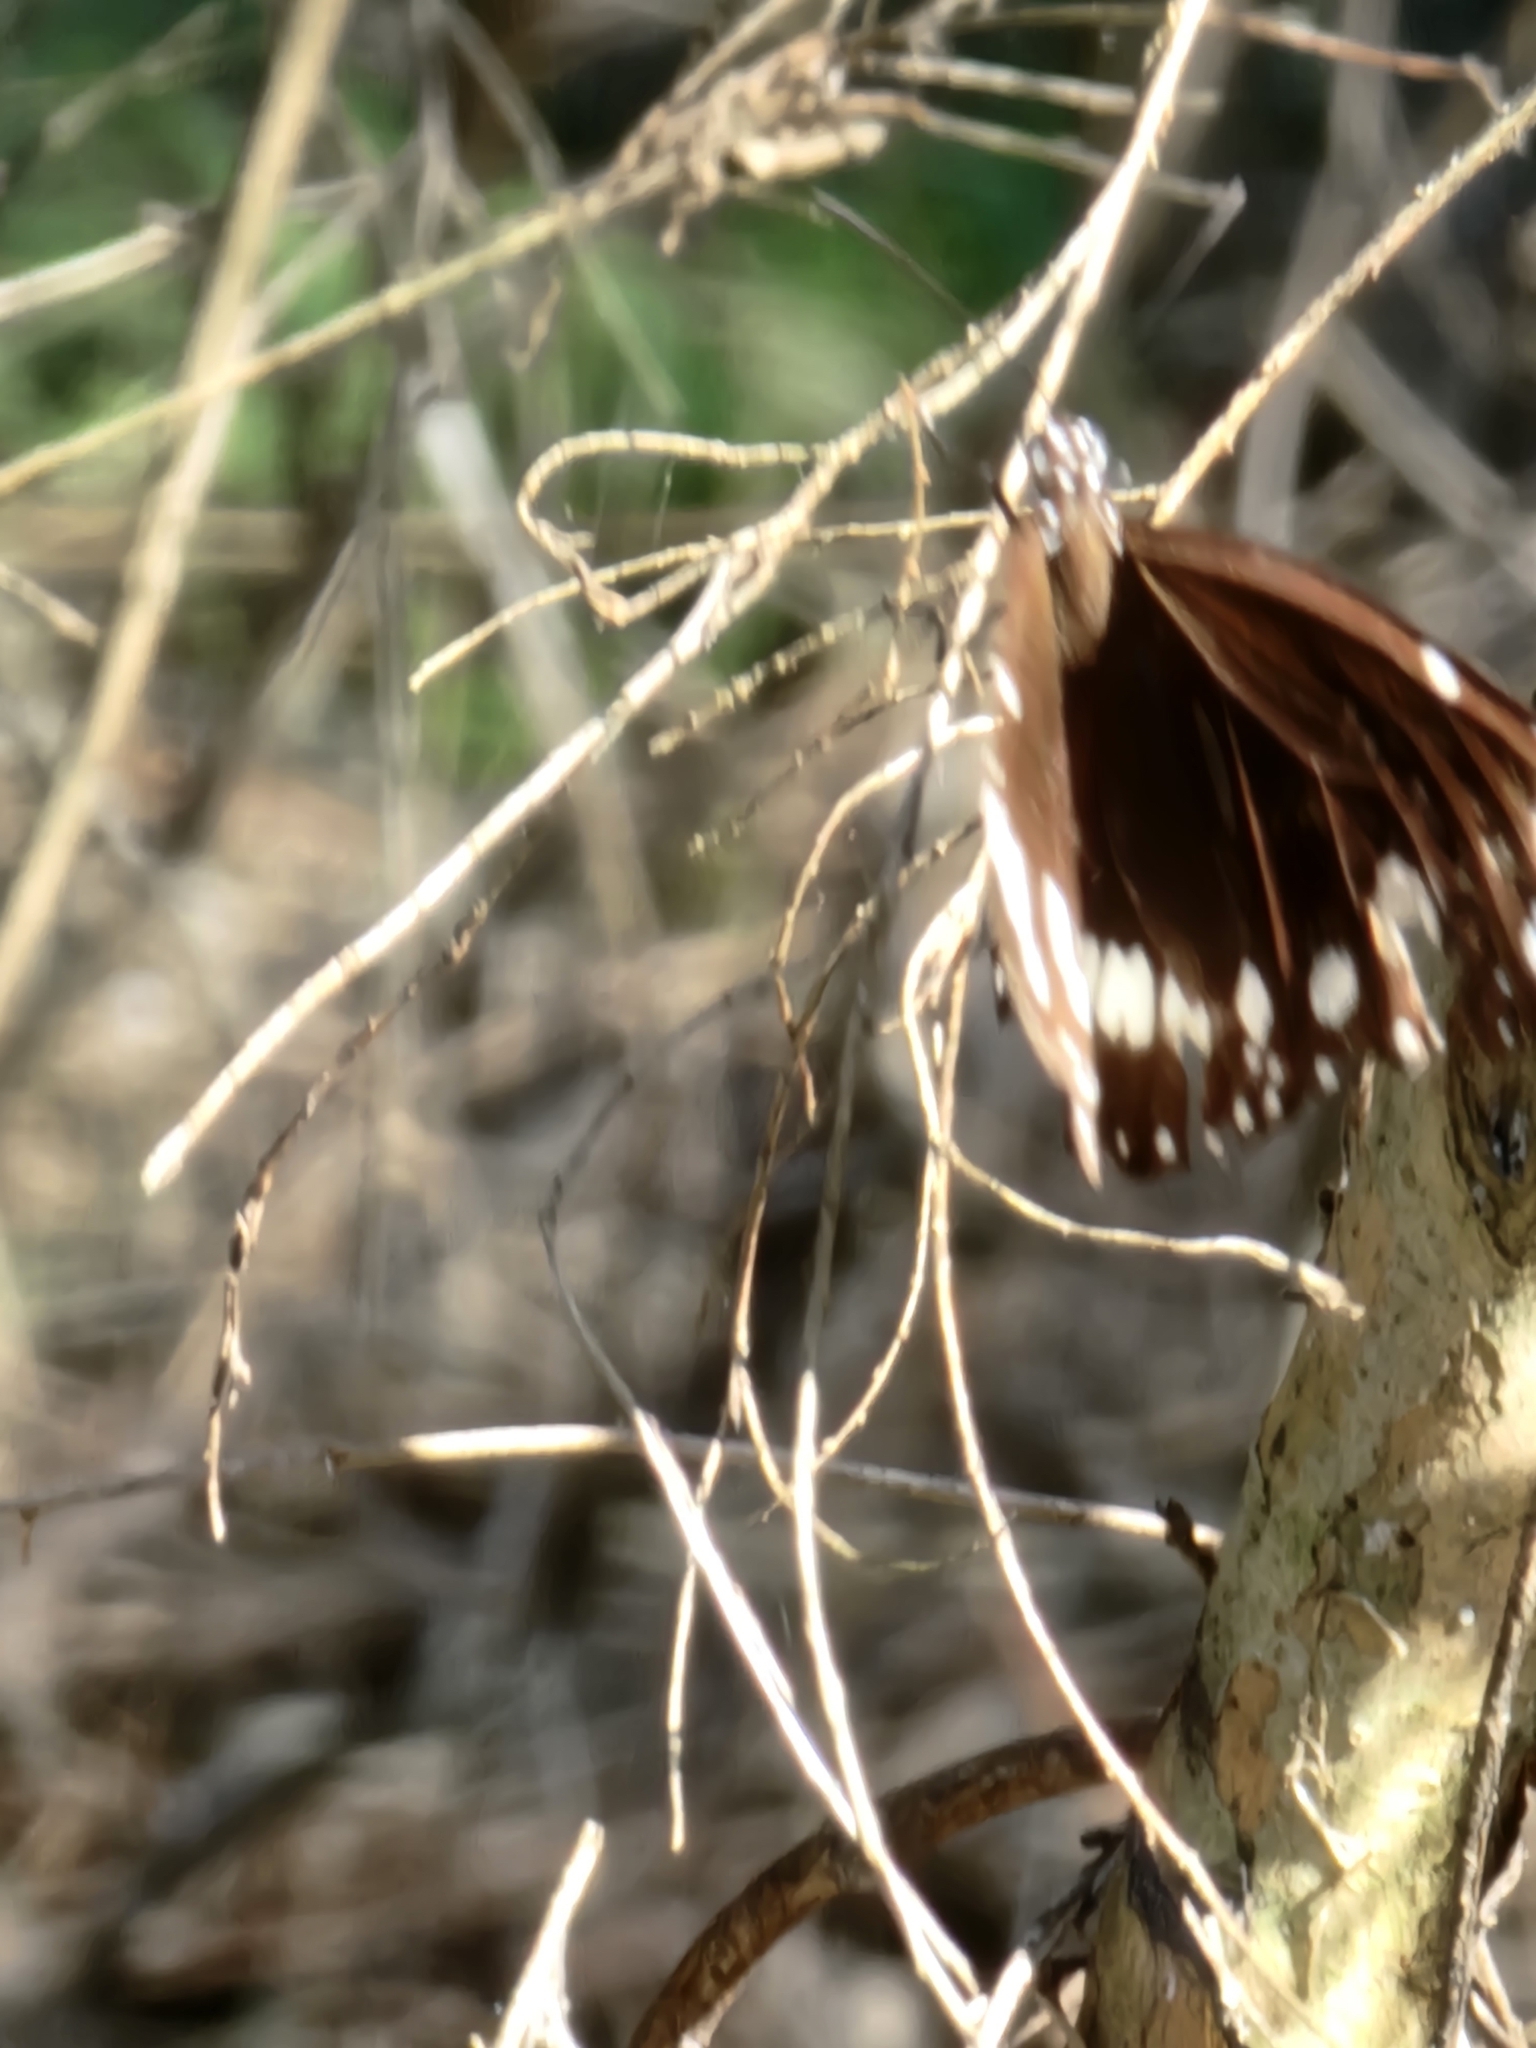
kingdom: Animalia
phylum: Arthropoda
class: Insecta
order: Lepidoptera
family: Nymphalidae
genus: Euploea
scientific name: Euploea core
